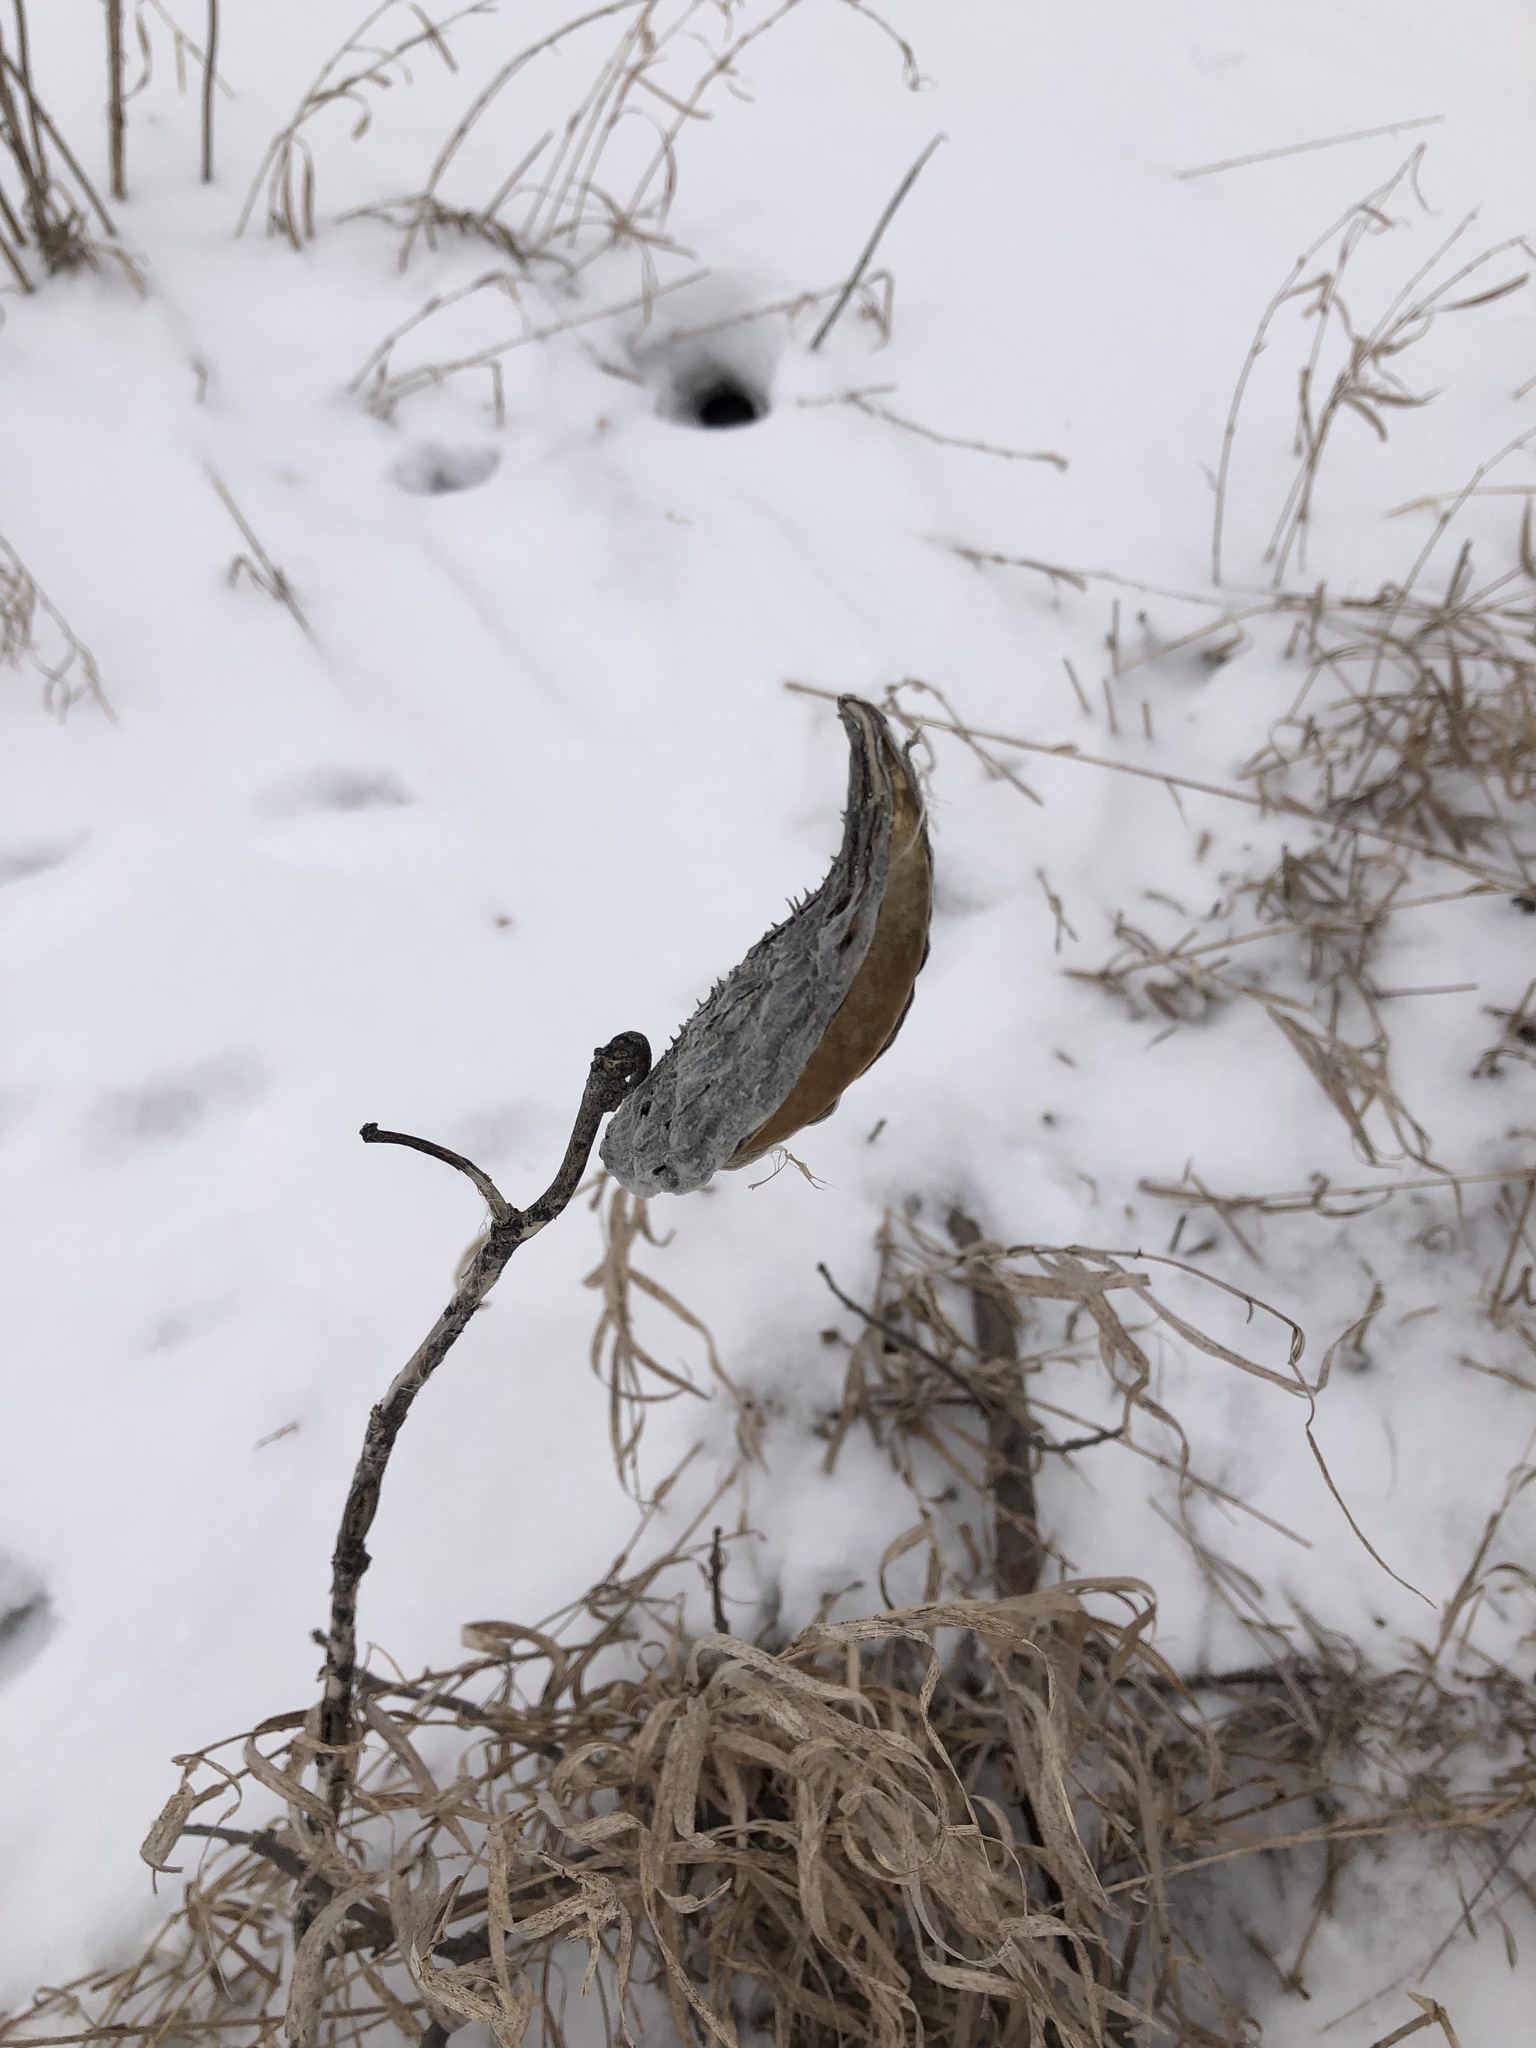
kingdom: Plantae
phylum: Tracheophyta
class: Magnoliopsida
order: Gentianales
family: Apocynaceae
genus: Asclepias
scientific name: Asclepias syriaca
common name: Common milkweed
